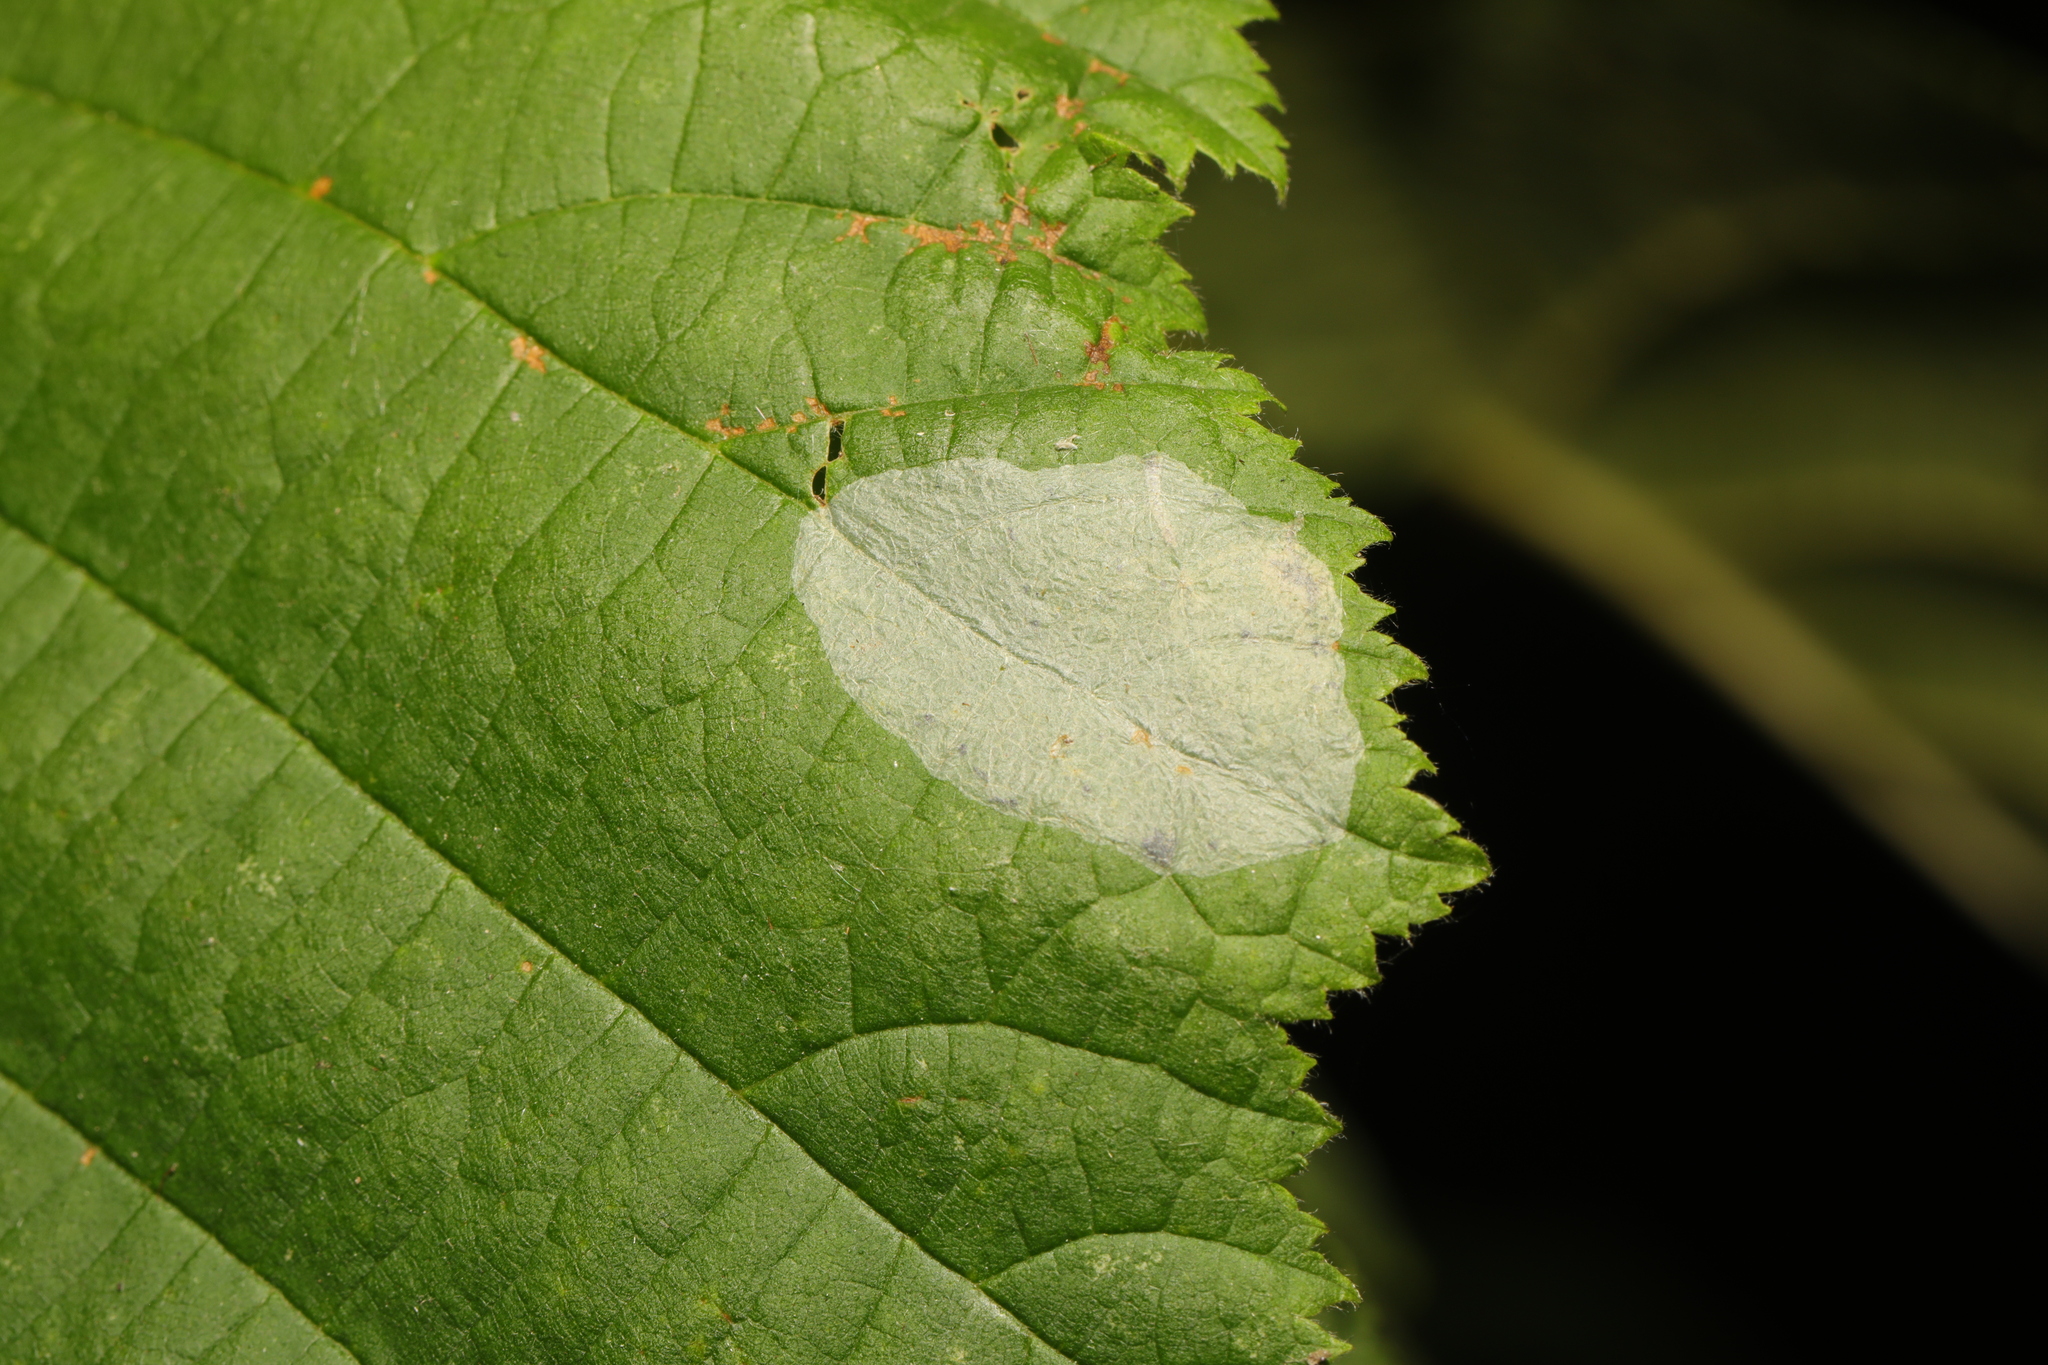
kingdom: Animalia
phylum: Arthropoda
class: Insecta
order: Lepidoptera
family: Gracillariidae
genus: Phyllonorycter
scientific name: Phyllonorycter coryli
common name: Nut-leaf blister moth
